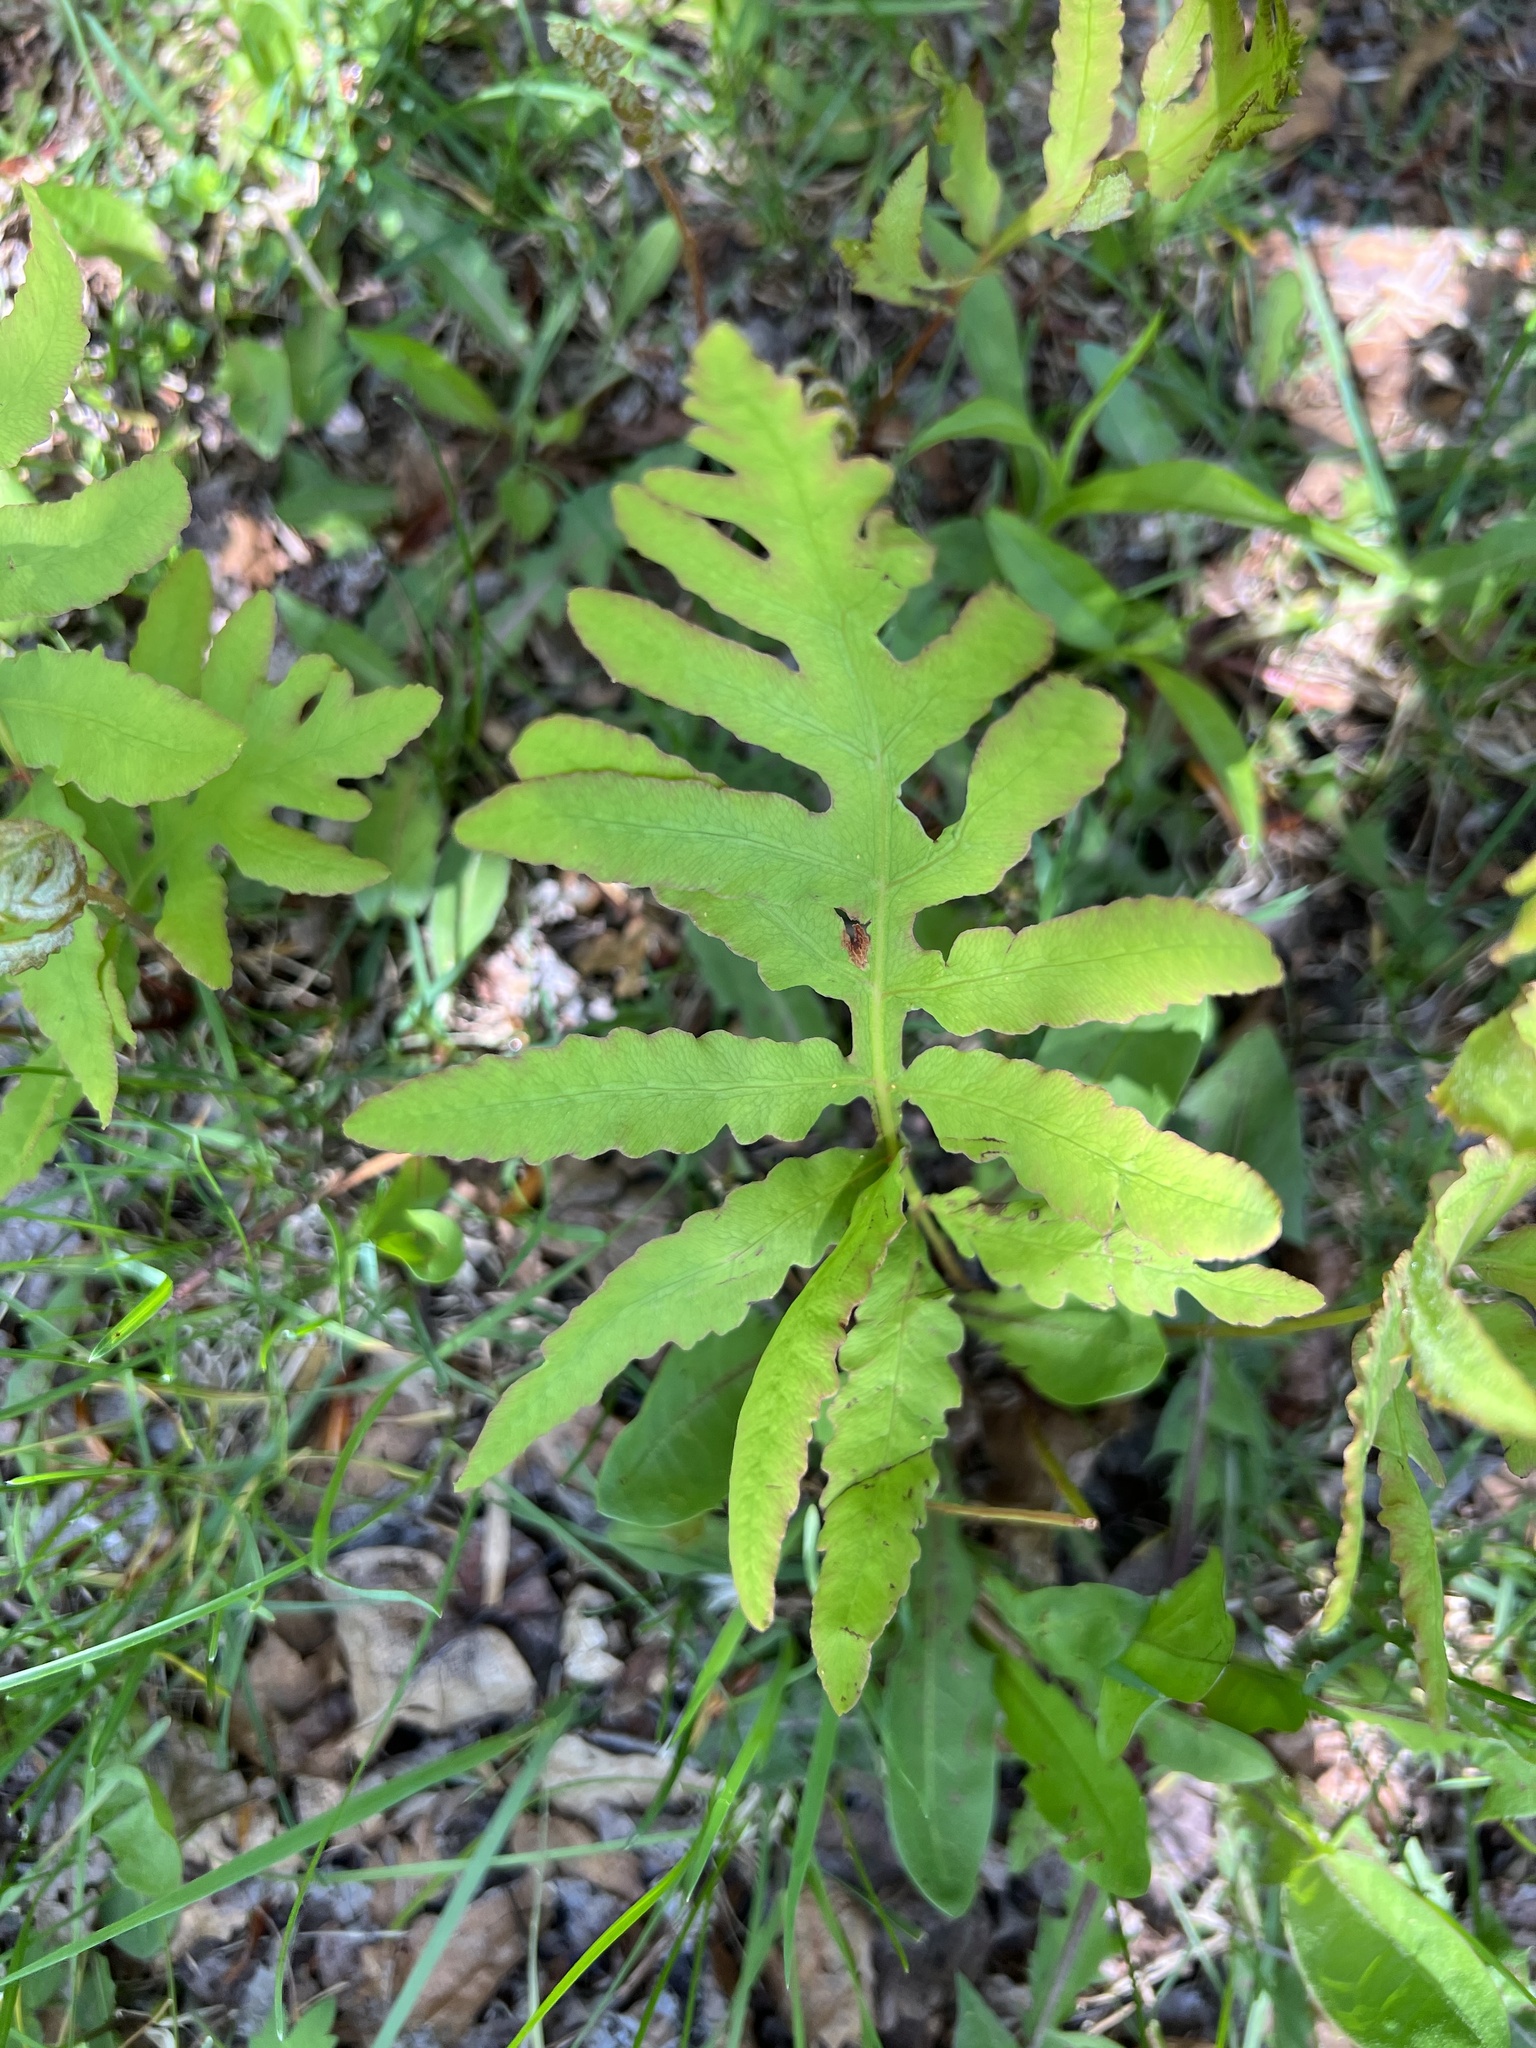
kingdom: Plantae
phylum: Tracheophyta
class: Polypodiopsida
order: Polypodiales
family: Onocleaceae
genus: Onoclea
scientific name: Onoclea sensibilis
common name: Sensitive fern
